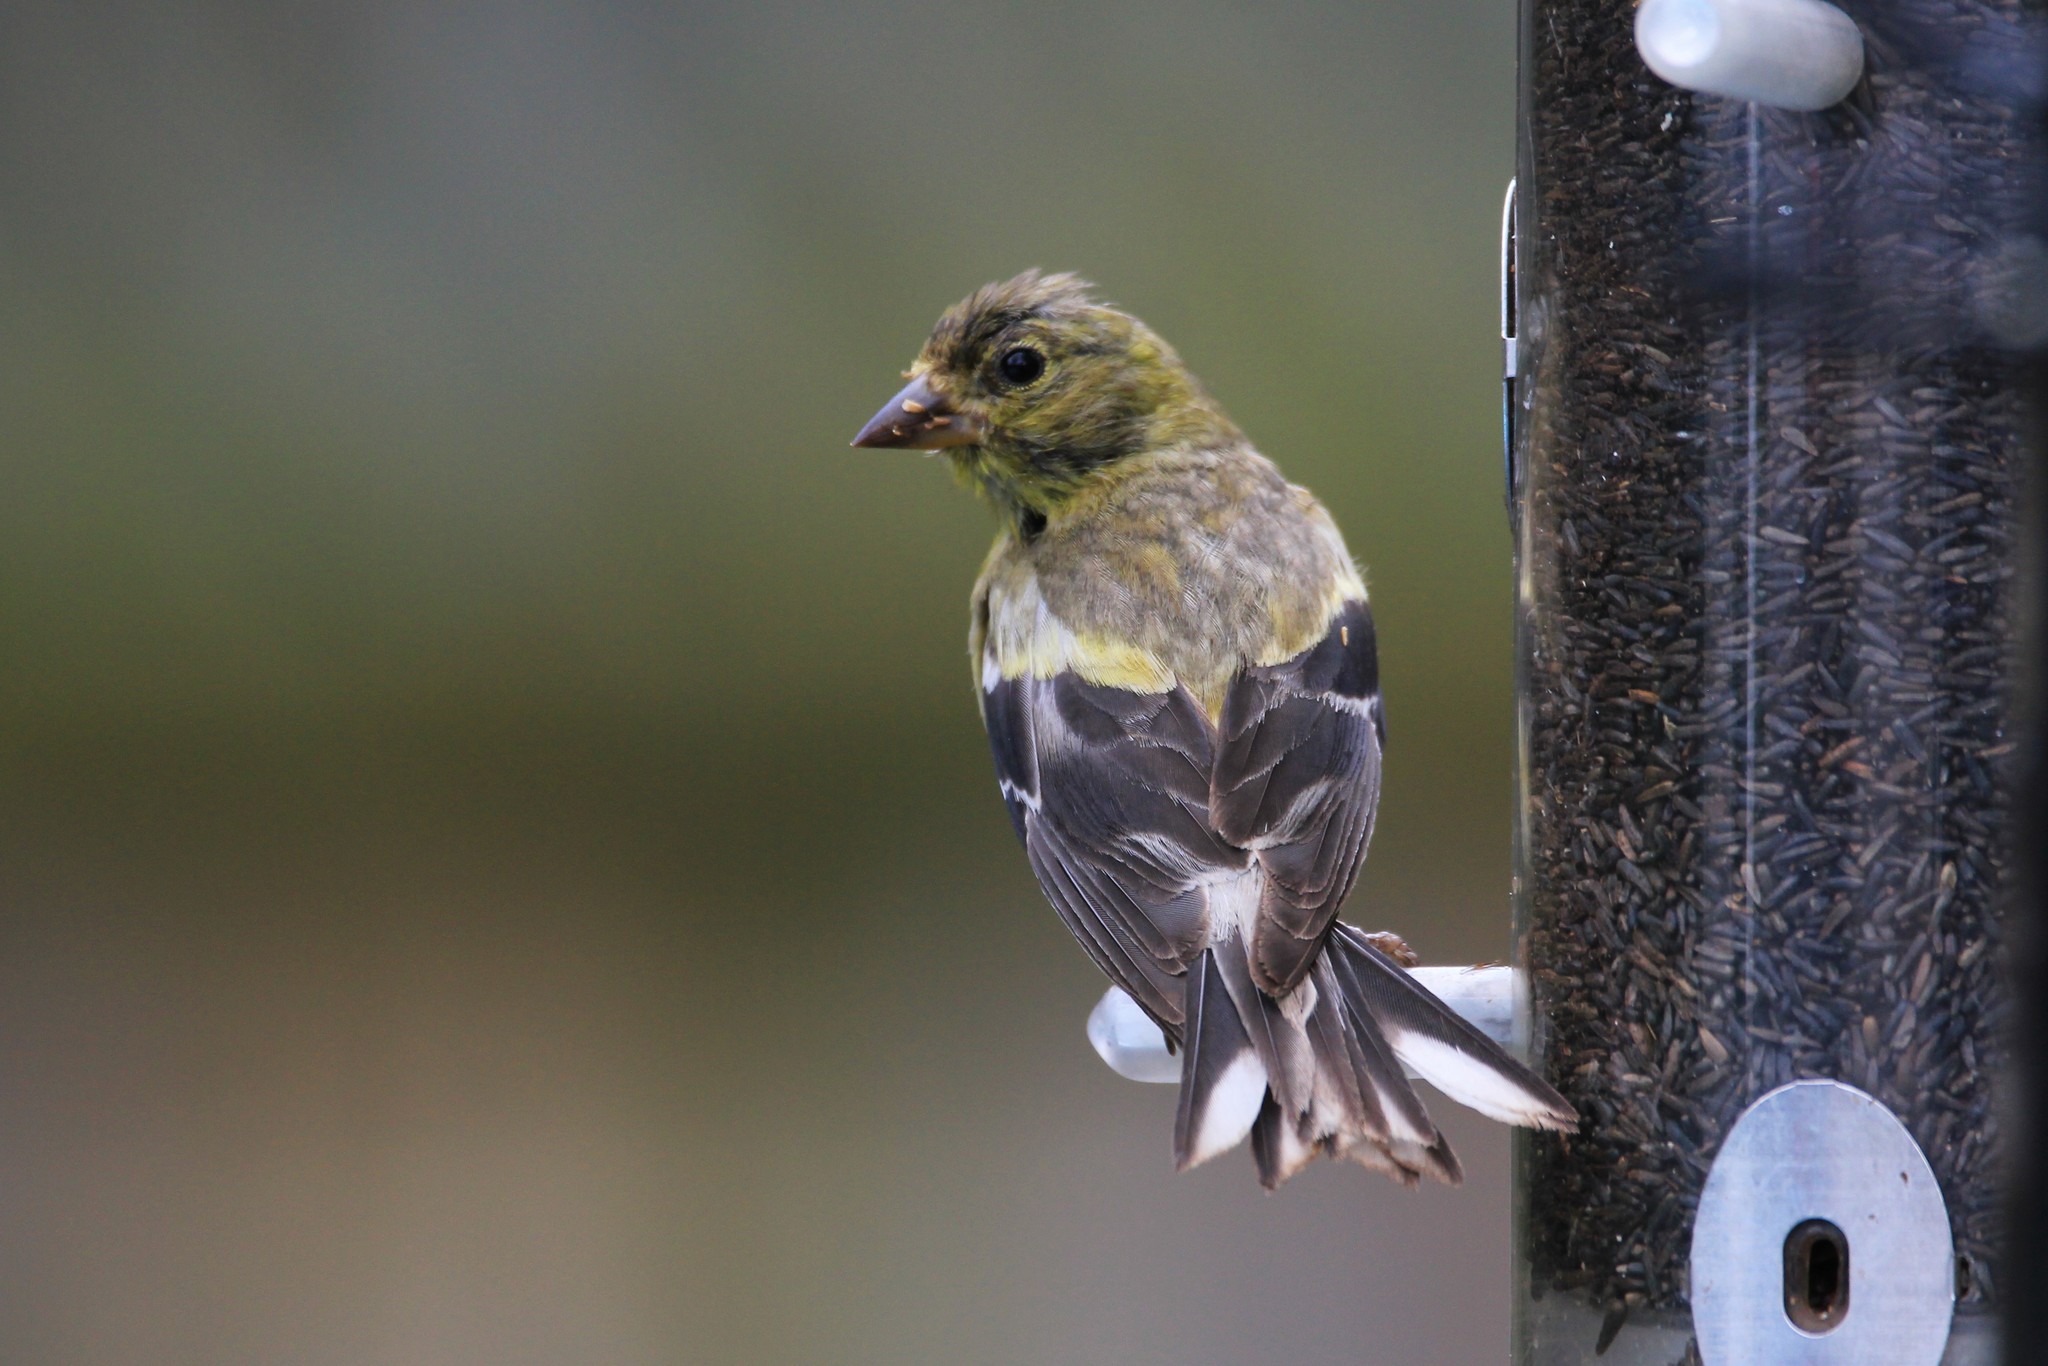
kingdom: Animalia
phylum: Chordata
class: Aves
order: Passeriformes
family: Fringillidae
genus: Spinus
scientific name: Spinus tristis
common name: American goldfinch
